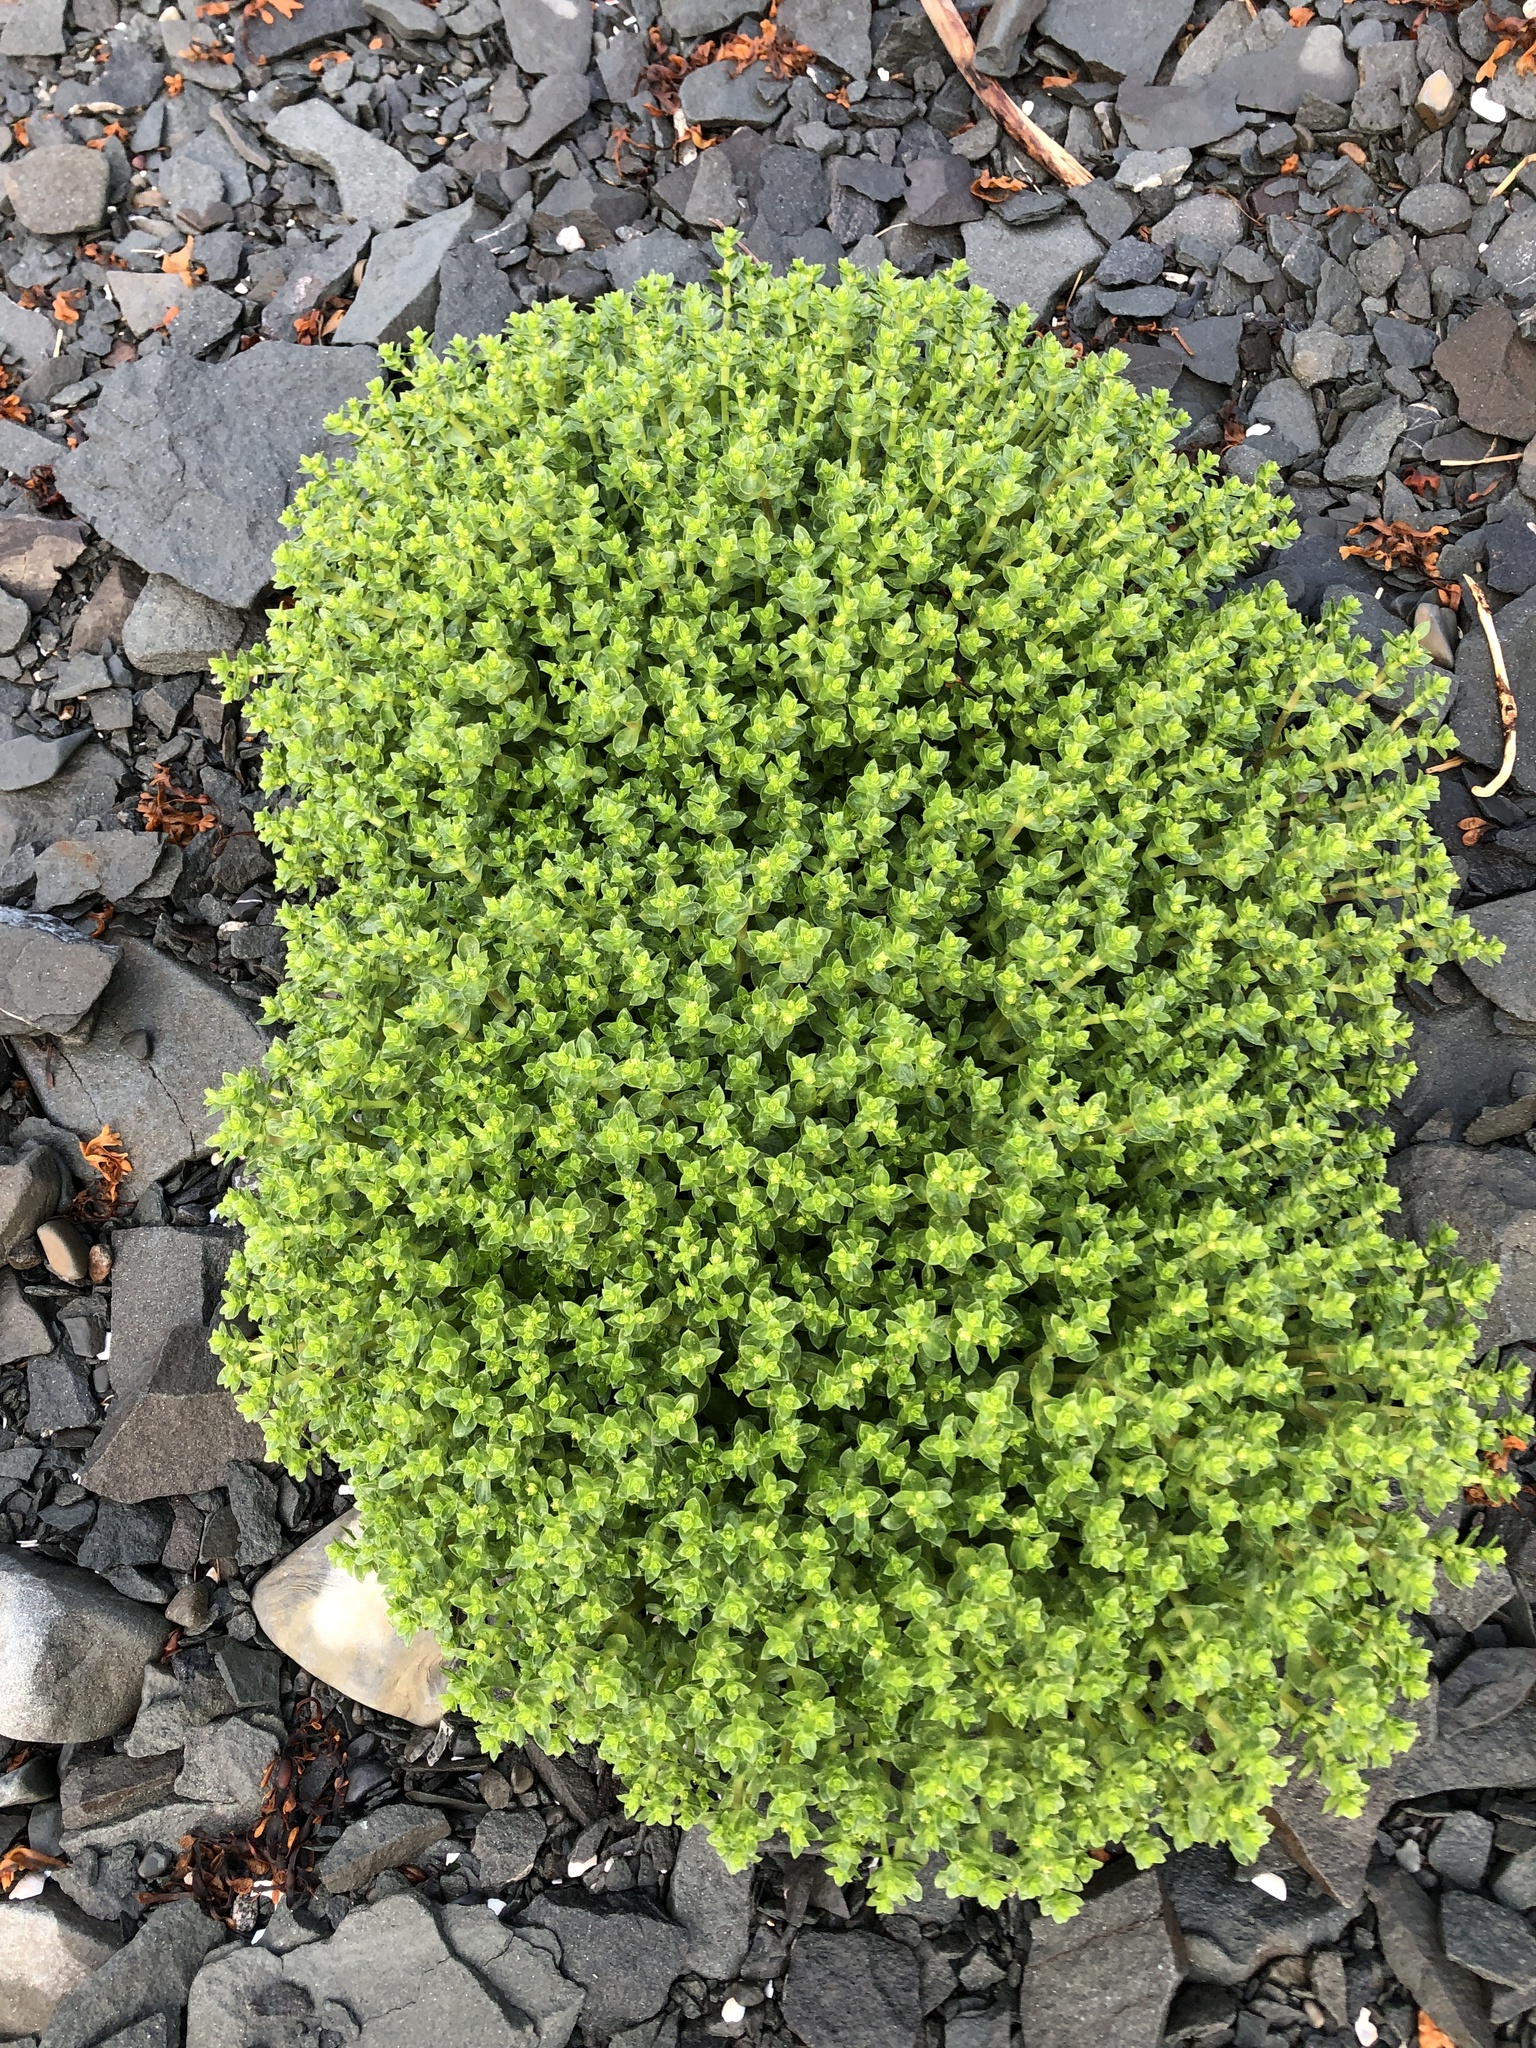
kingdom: Plantae
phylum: Tracheophyta
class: Magnoliopsida
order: Caryophyllales
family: Caryophyllaceae
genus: Honckenya
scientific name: Honckenya peploides
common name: Sea sandwort
